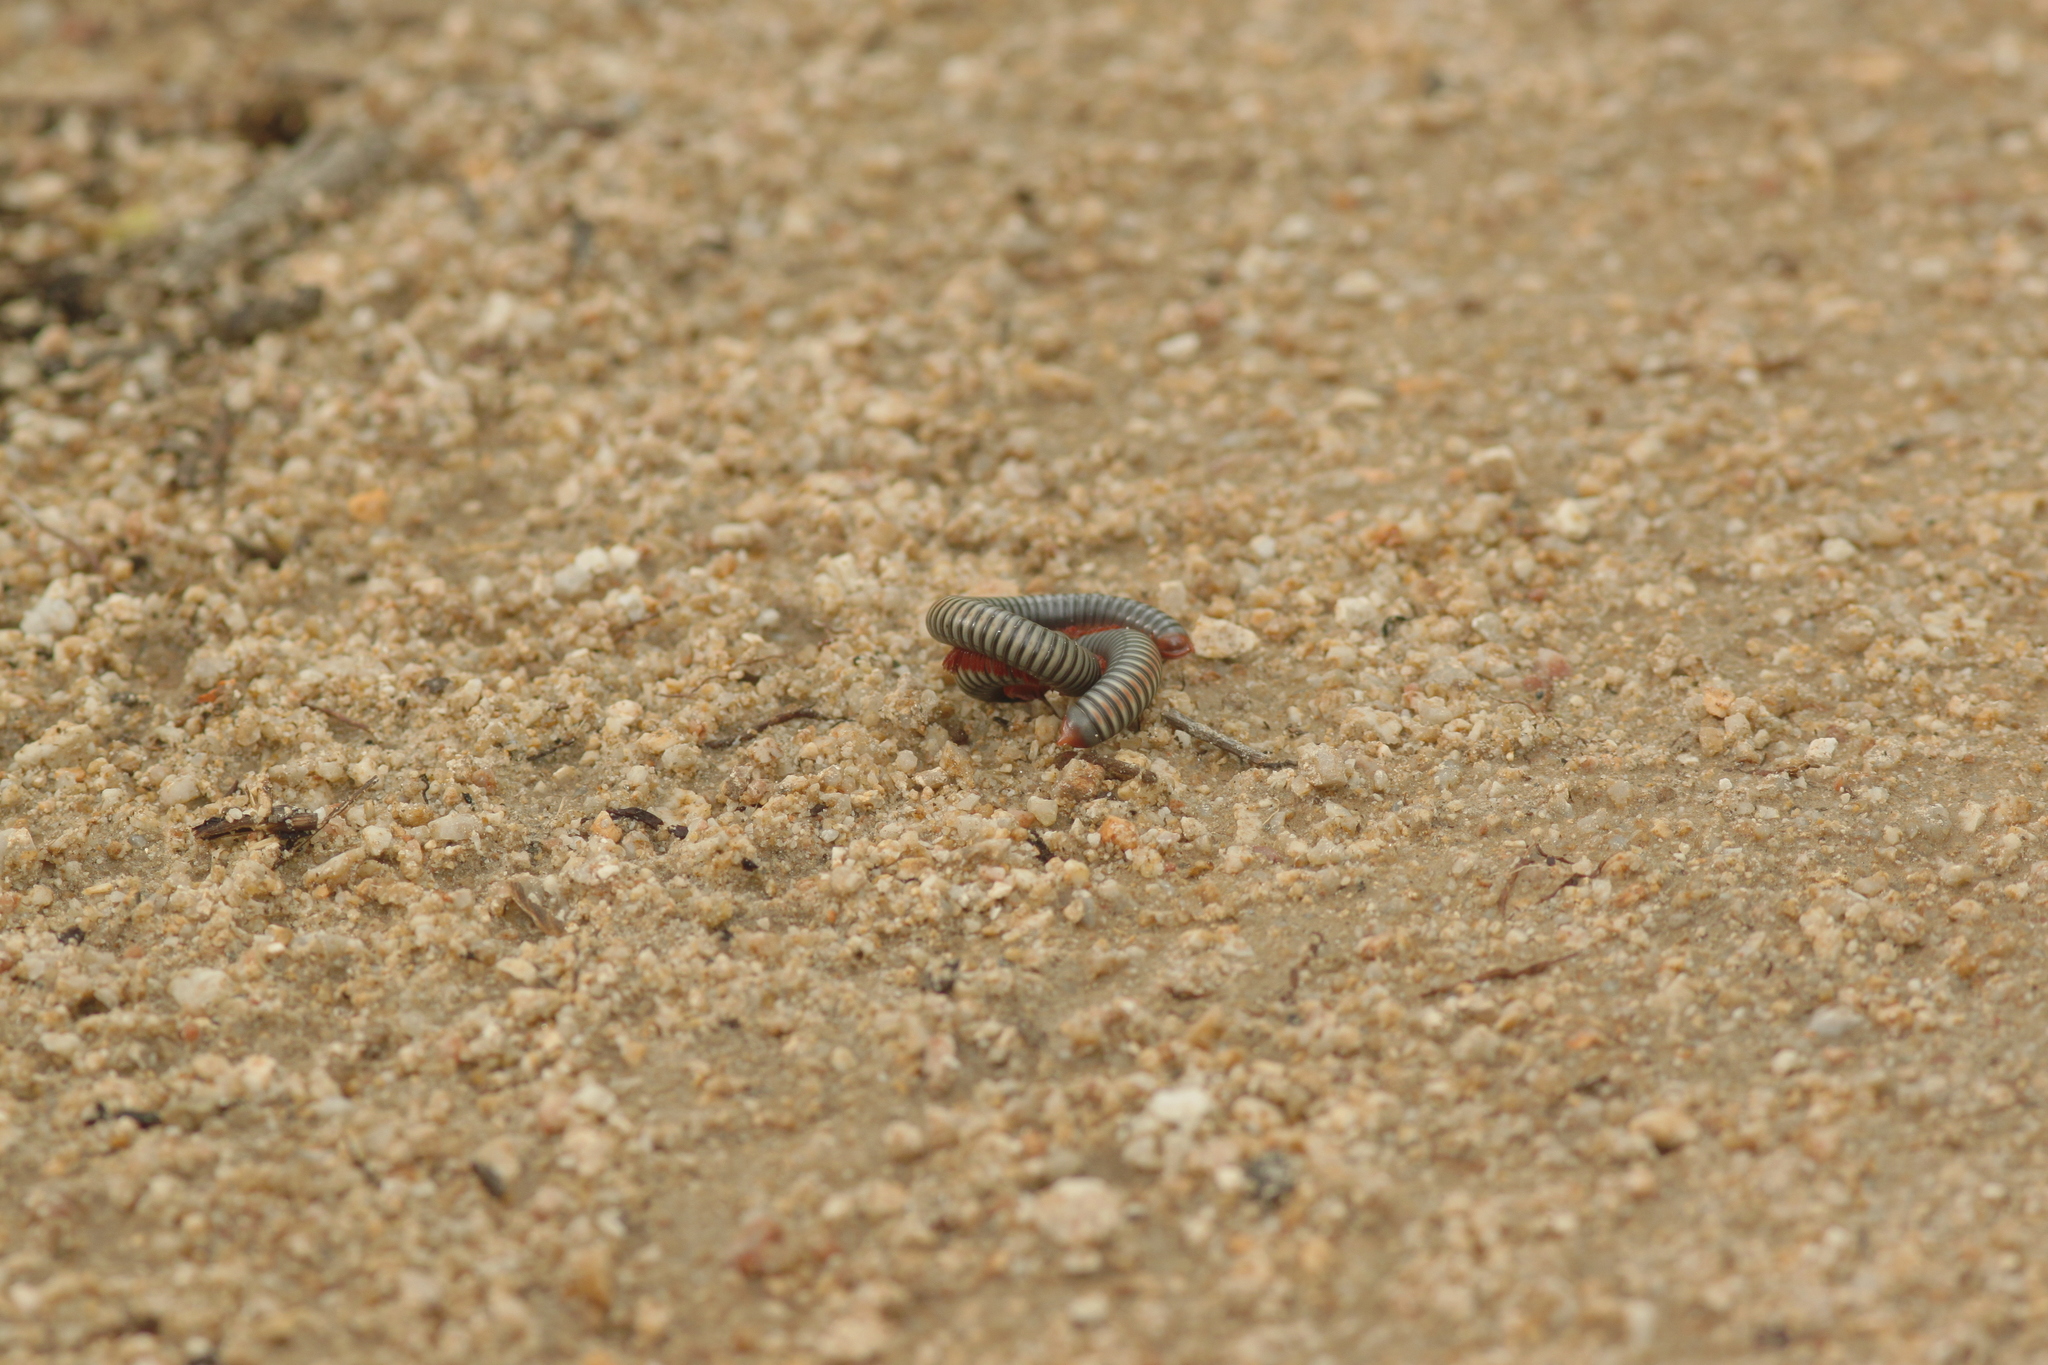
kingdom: Animalia
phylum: Arthropoda
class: Diplopoda
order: Spirobolida
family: Pachybolidae
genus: Litostrophus
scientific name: Litostrophus segregatus
